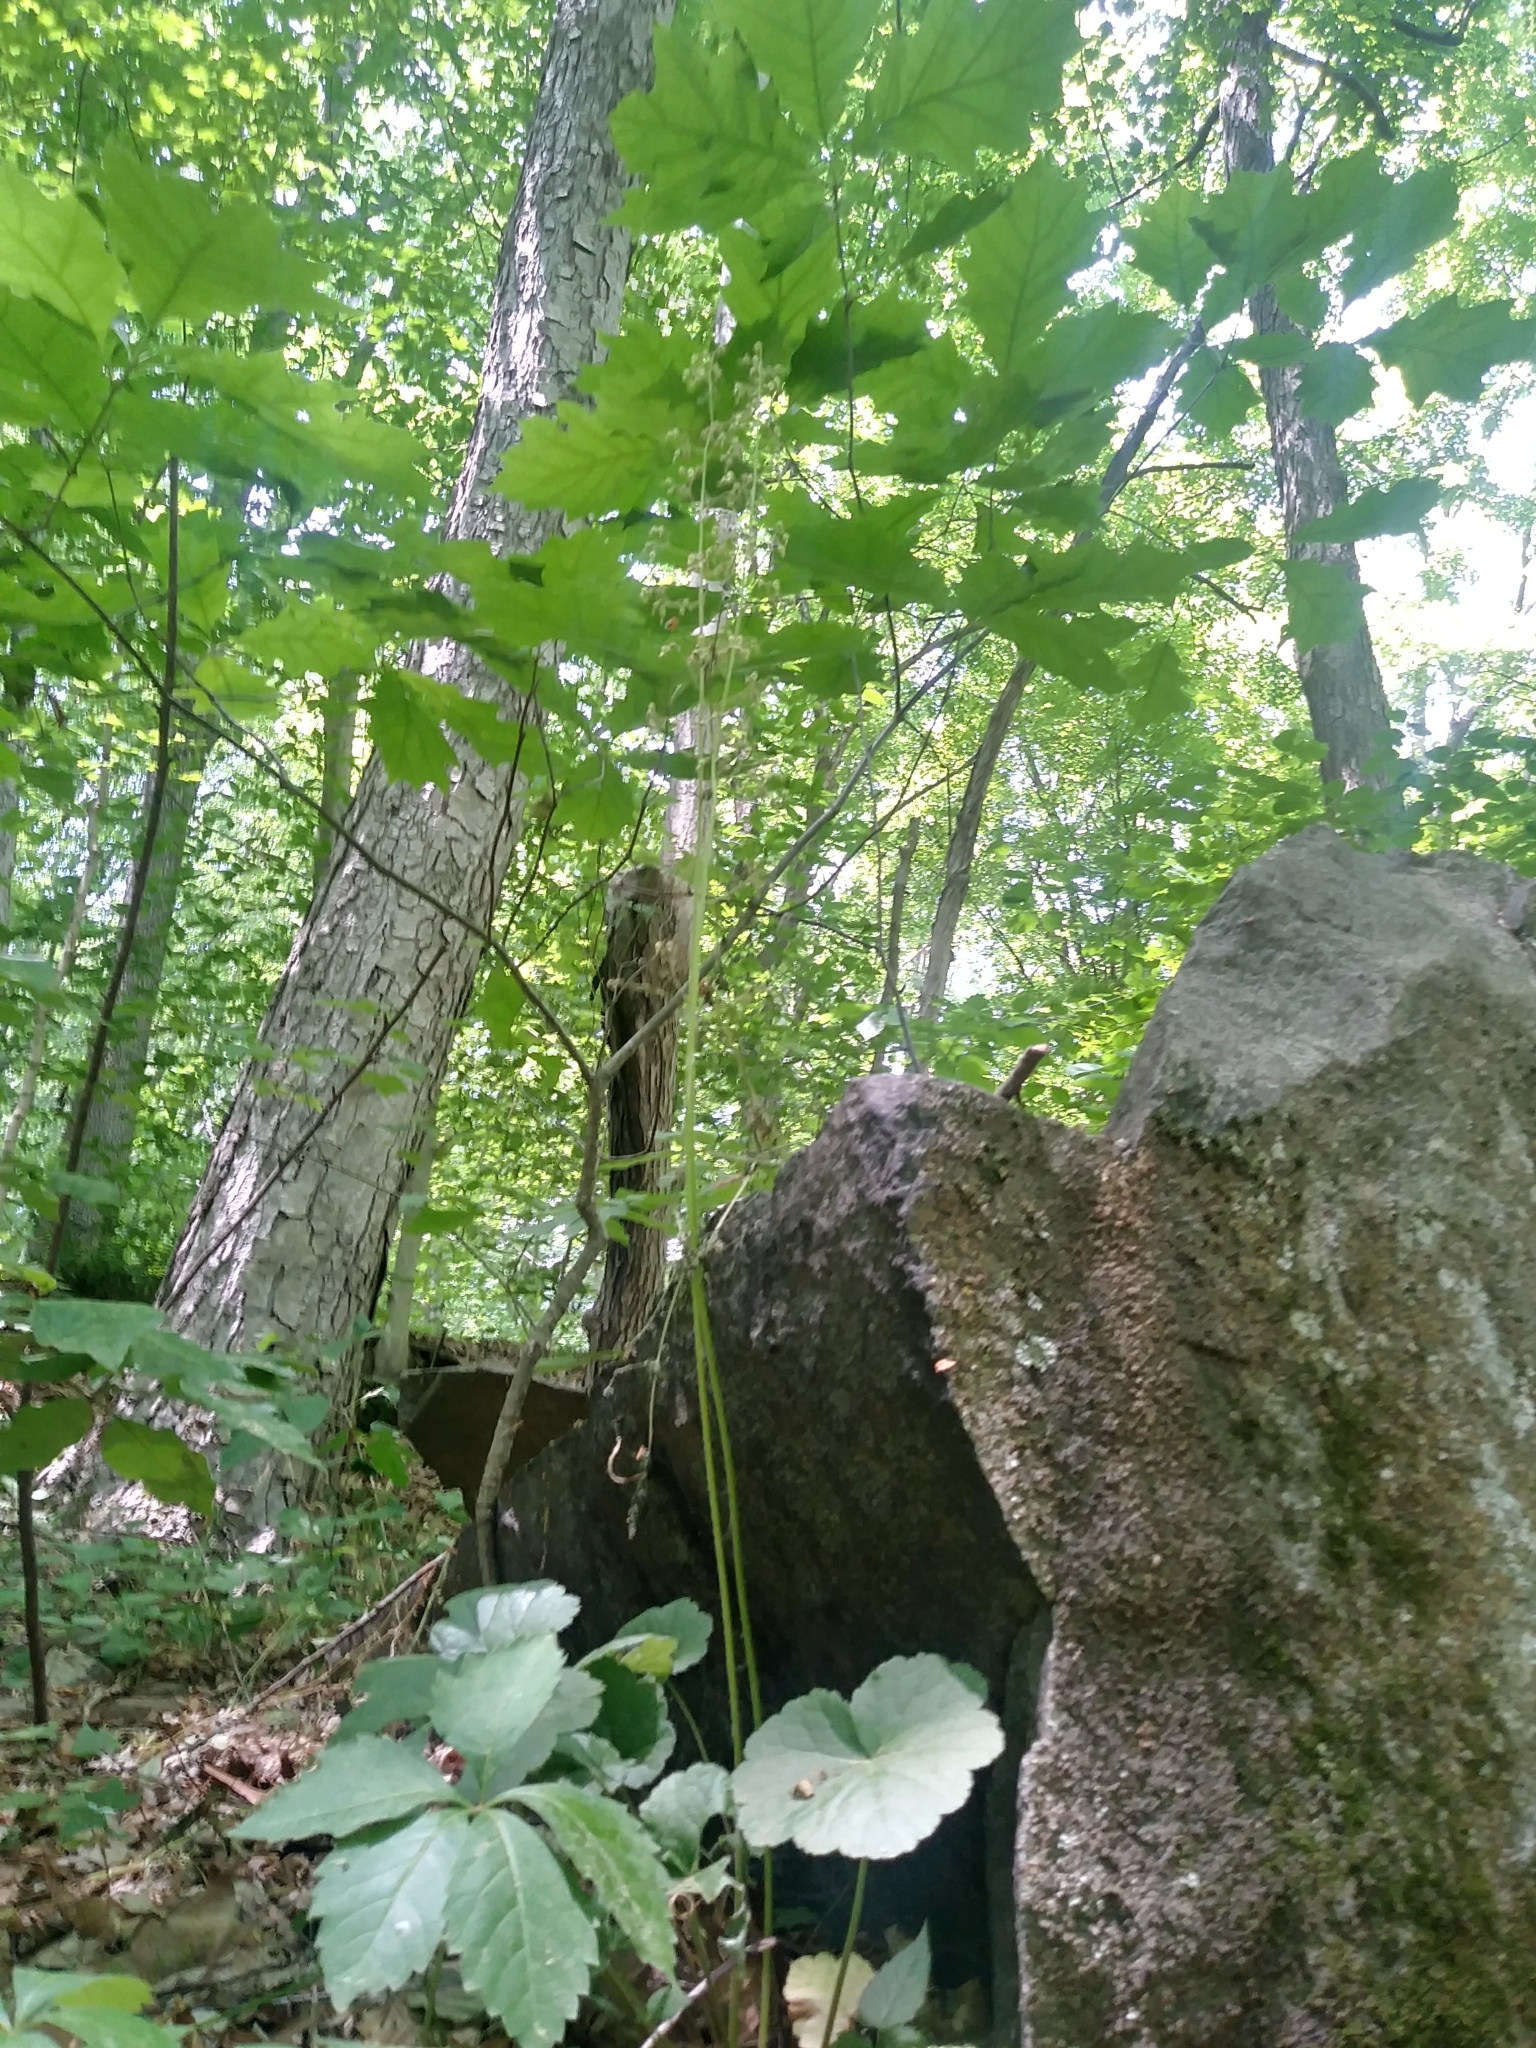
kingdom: Plantae
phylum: Tracheophyta
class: Magnoliopsida
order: Saxifragales
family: Saxifragaceae
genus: Heuchera
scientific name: Heuchera americana
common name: Alumroot
